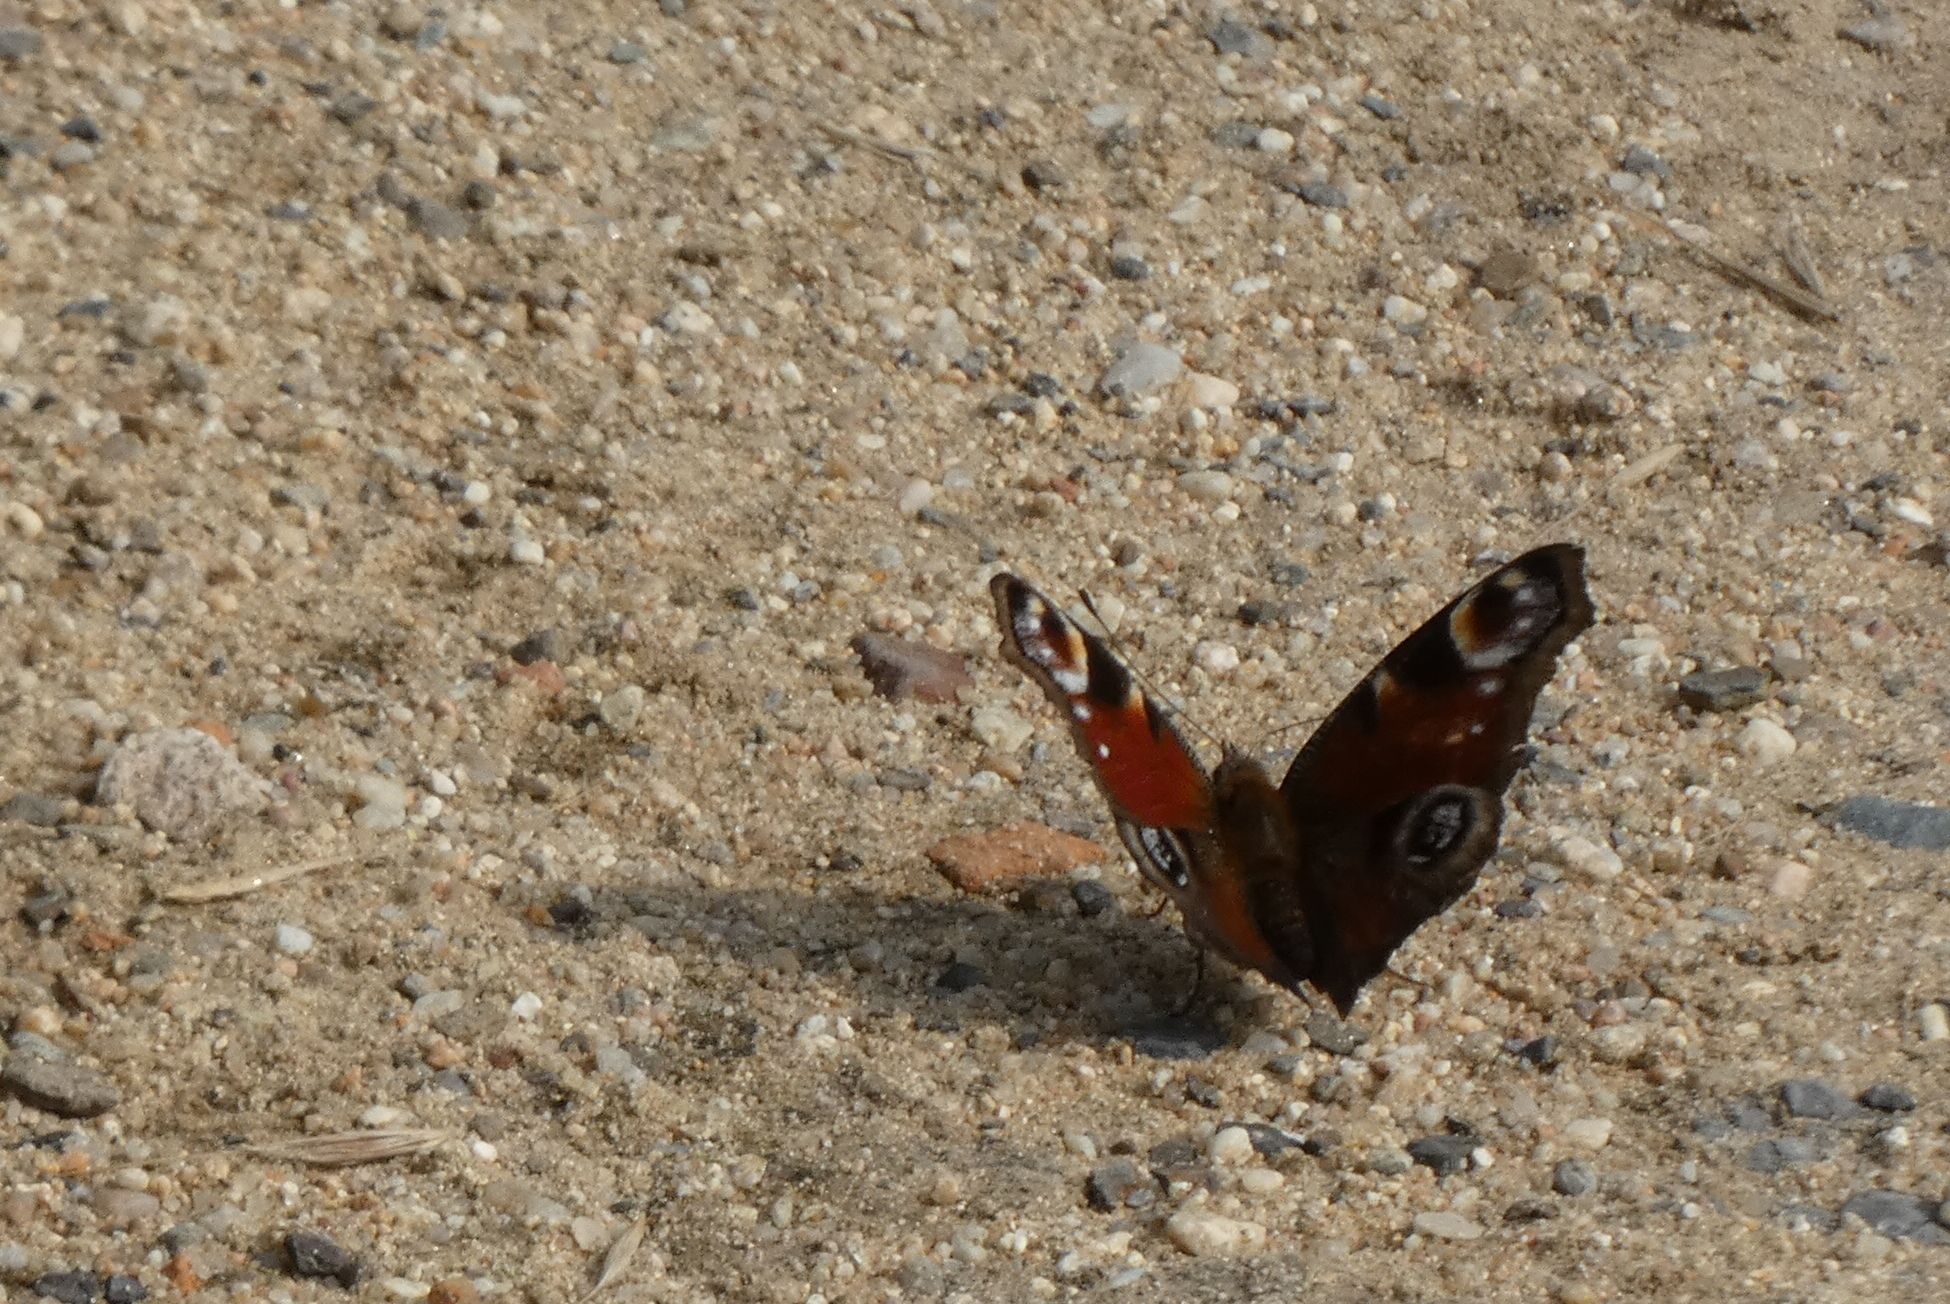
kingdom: Animalia
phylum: Arthropoda
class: Insecta
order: Lepidoptera
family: Nymphalidae
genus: Aglais
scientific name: Aglais io
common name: Peacock
